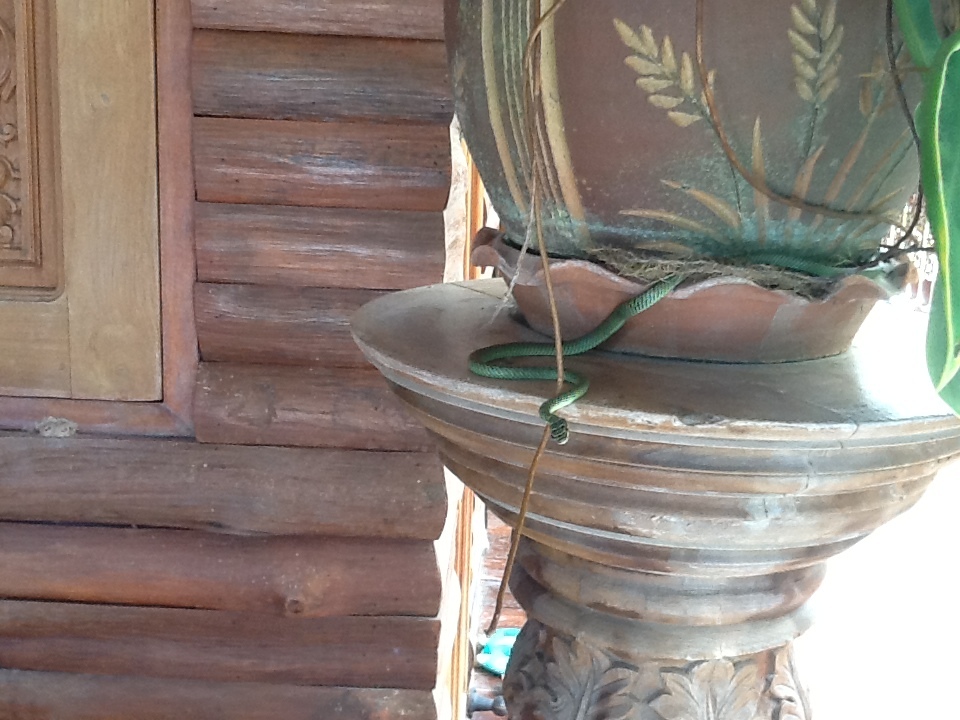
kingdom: Animalia
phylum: Chordata
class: Squamata
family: Colubridae
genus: Chrysopelea
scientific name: Chrysopelea ornata
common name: Golden flying snake
